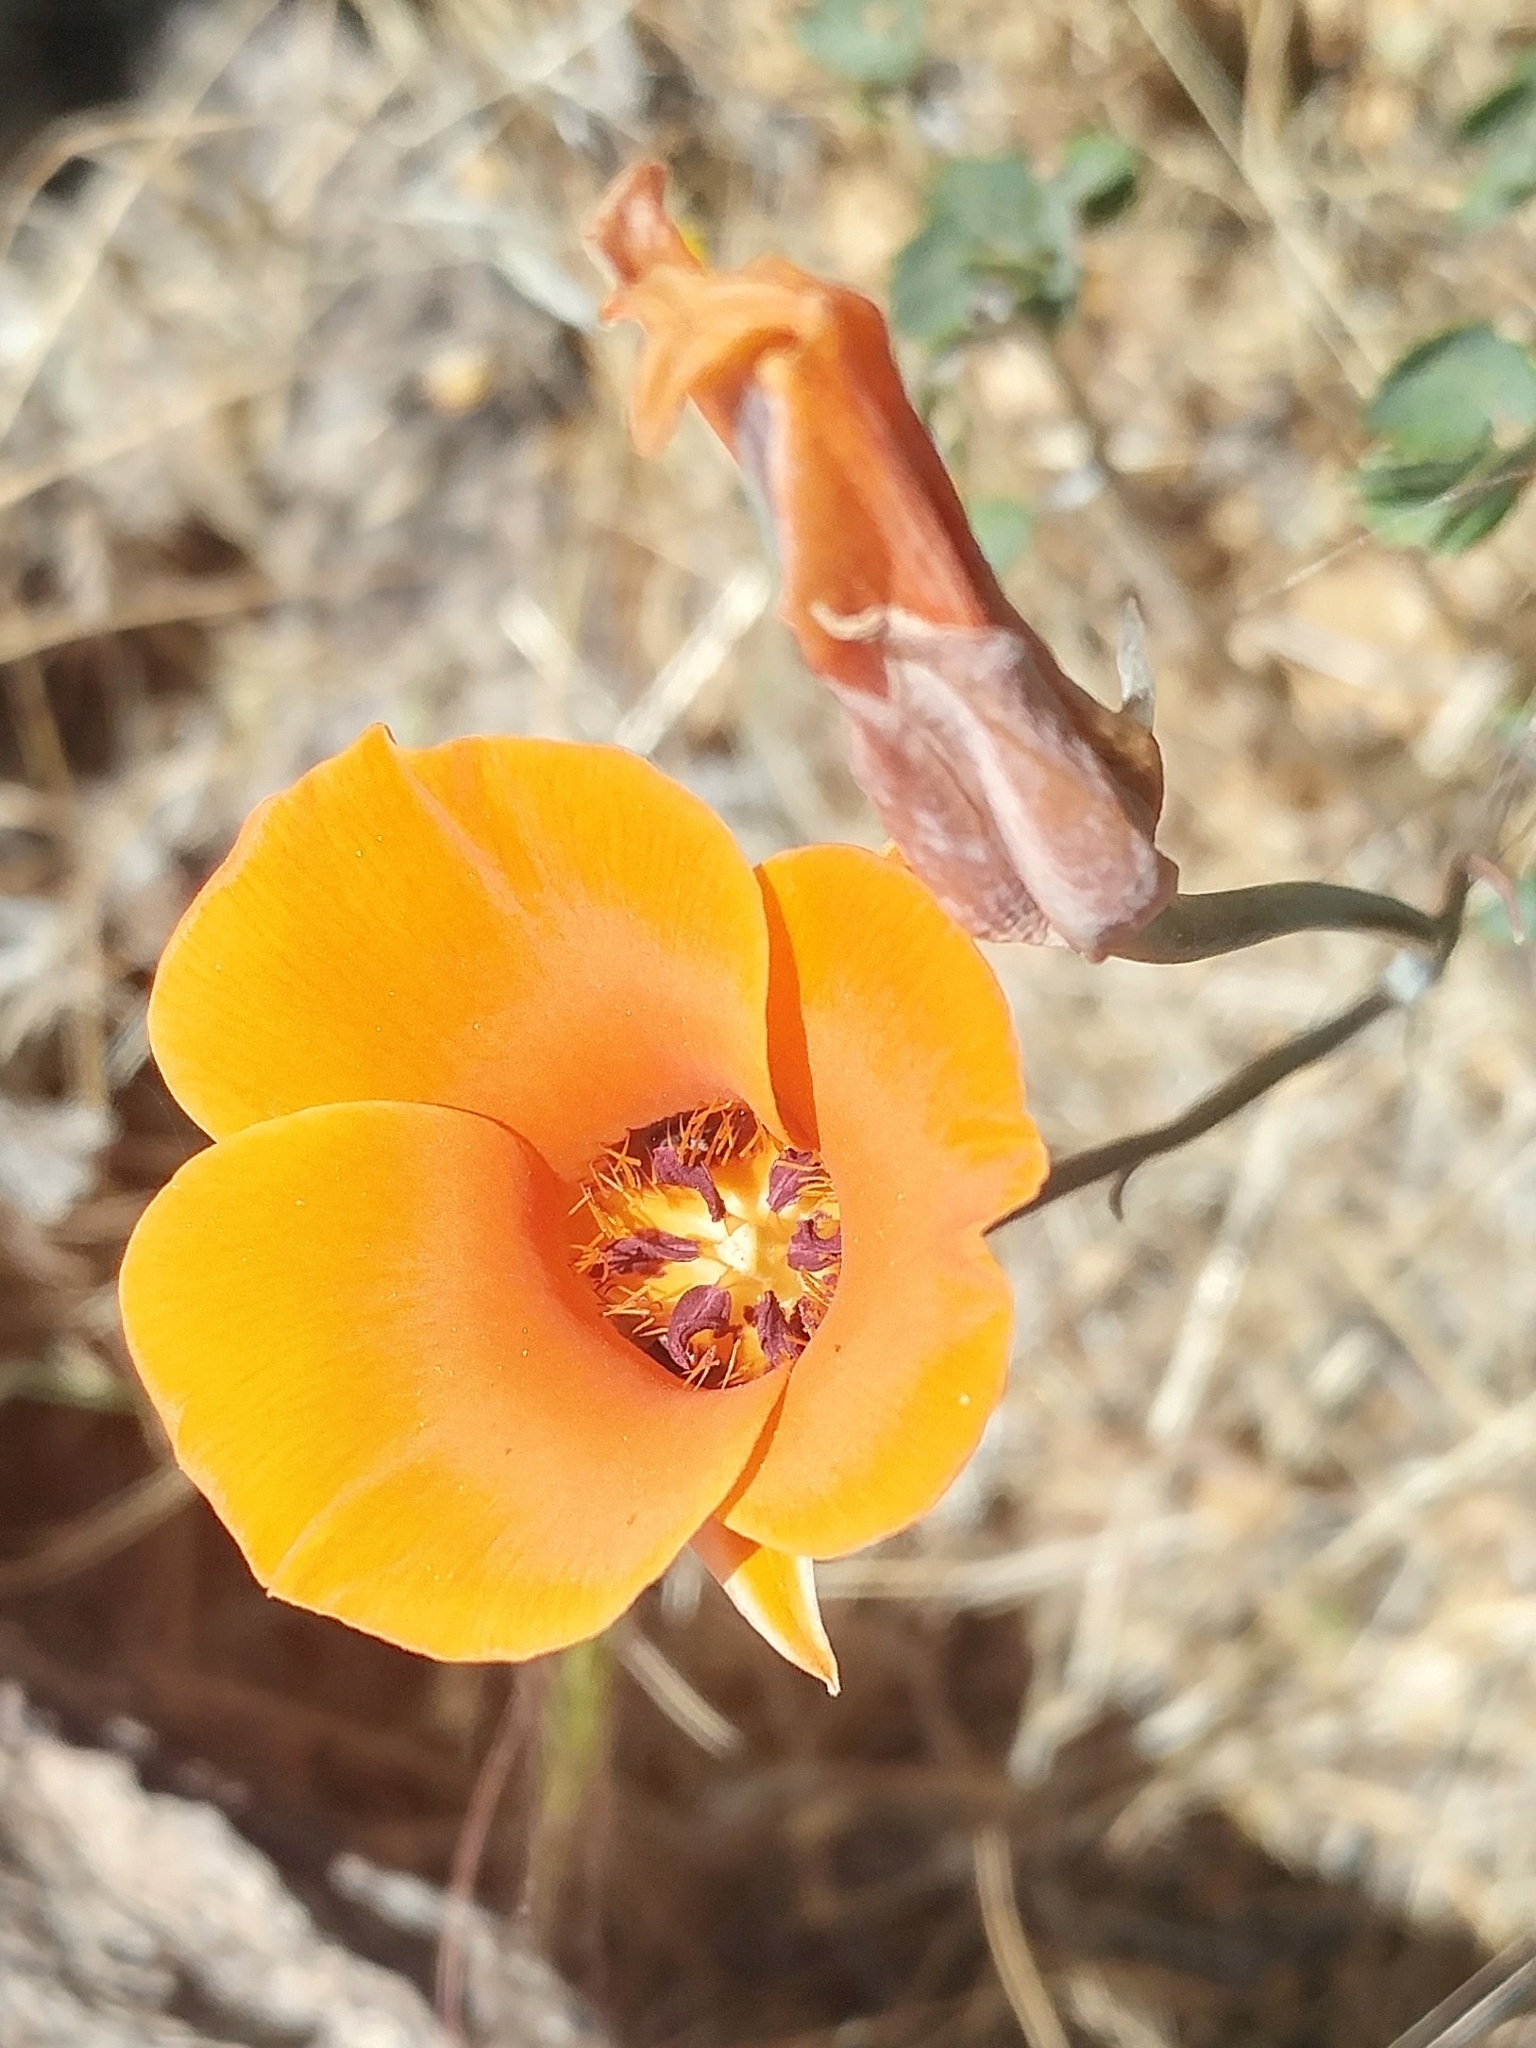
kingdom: Plantae
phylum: Tracheophyta
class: Liliopsida
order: Liliales
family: Liliaceae
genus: Calochortus
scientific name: Calochortus kennedyi
